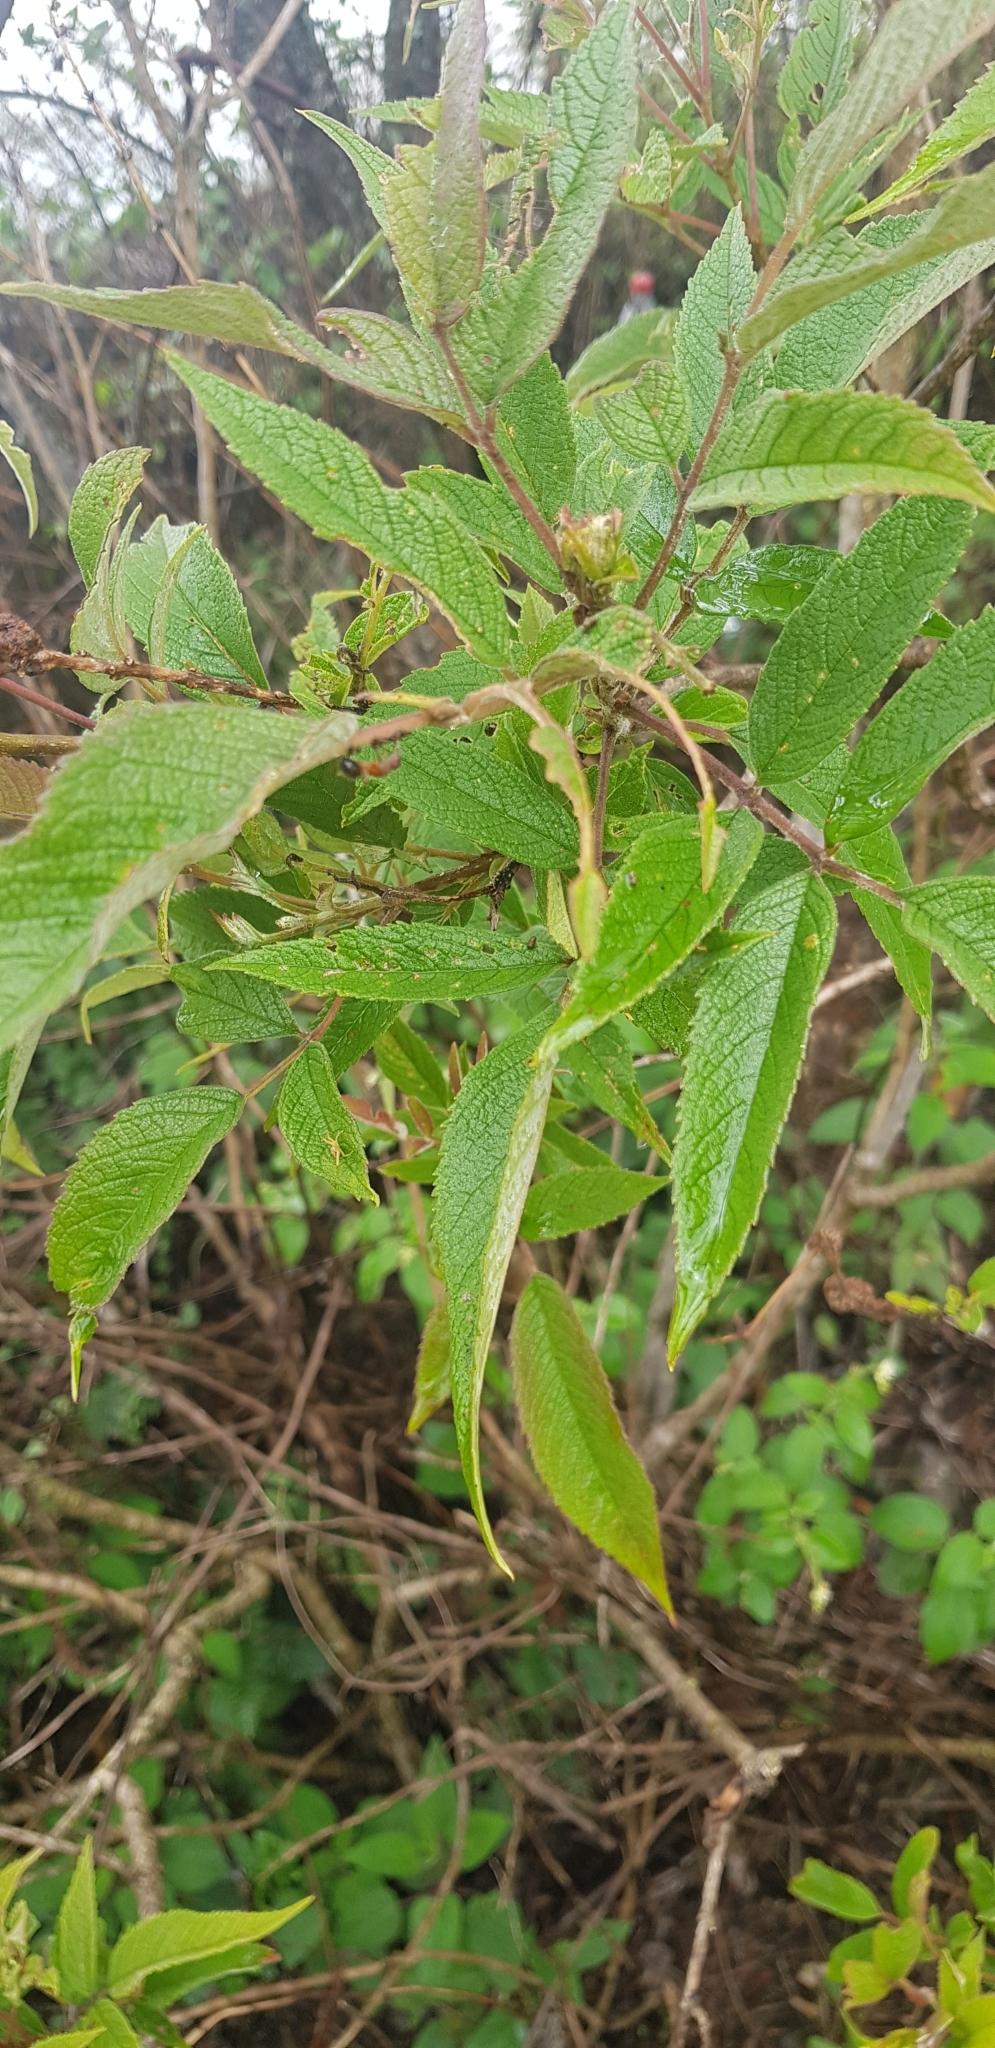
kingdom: Plantae
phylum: Tracheophyta
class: Magnoliopsida
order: Lamiales
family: Bignoniaceae
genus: Tecoma
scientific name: Tecoma stans
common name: Yellow trumpetbush
